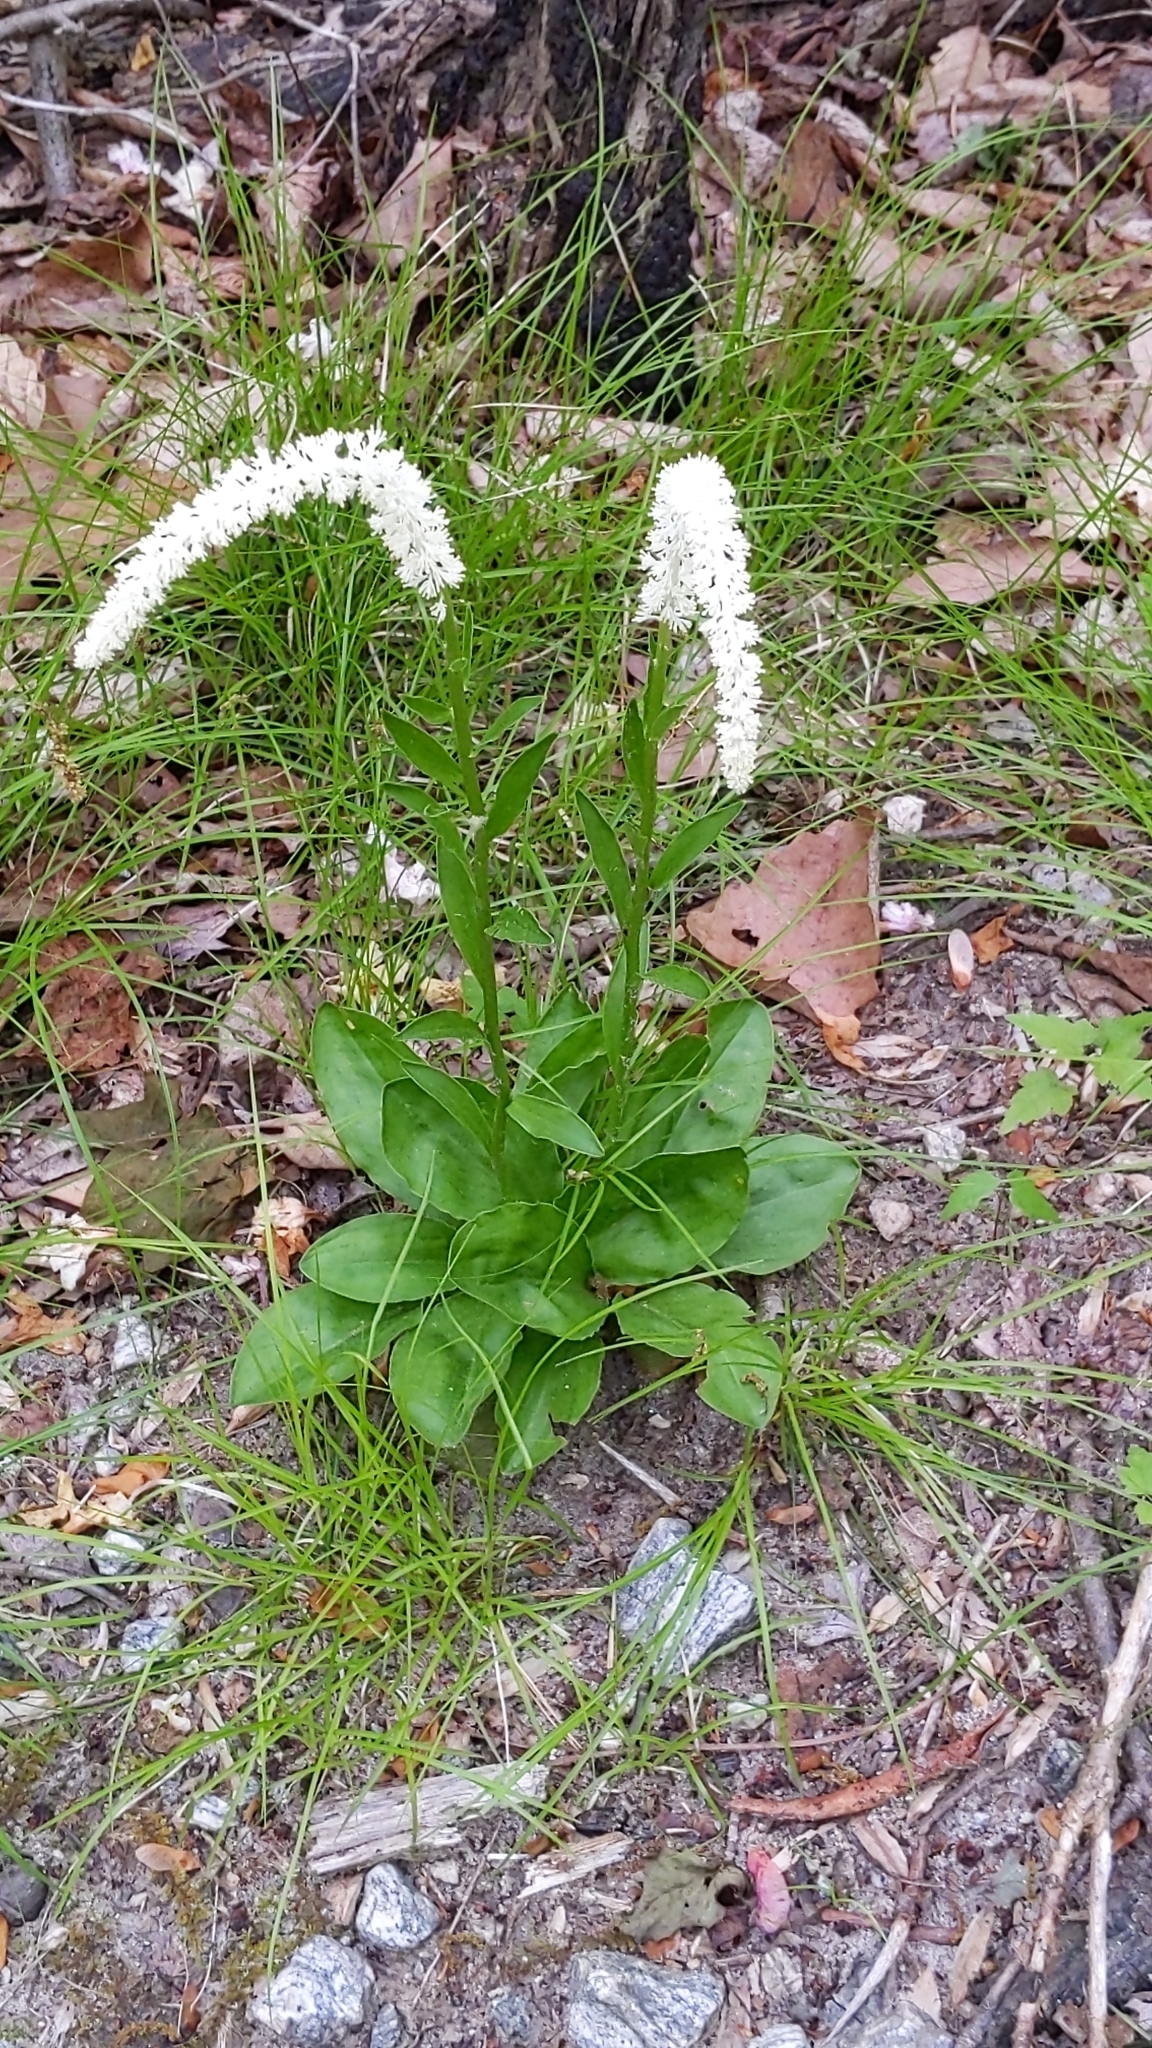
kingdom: Plantae
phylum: Tracheophyta
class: Liliopsida
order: Liliales
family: Melanthiaceae
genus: Chamaelirium
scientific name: Chamaelirium luteum
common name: Fairy-wand
